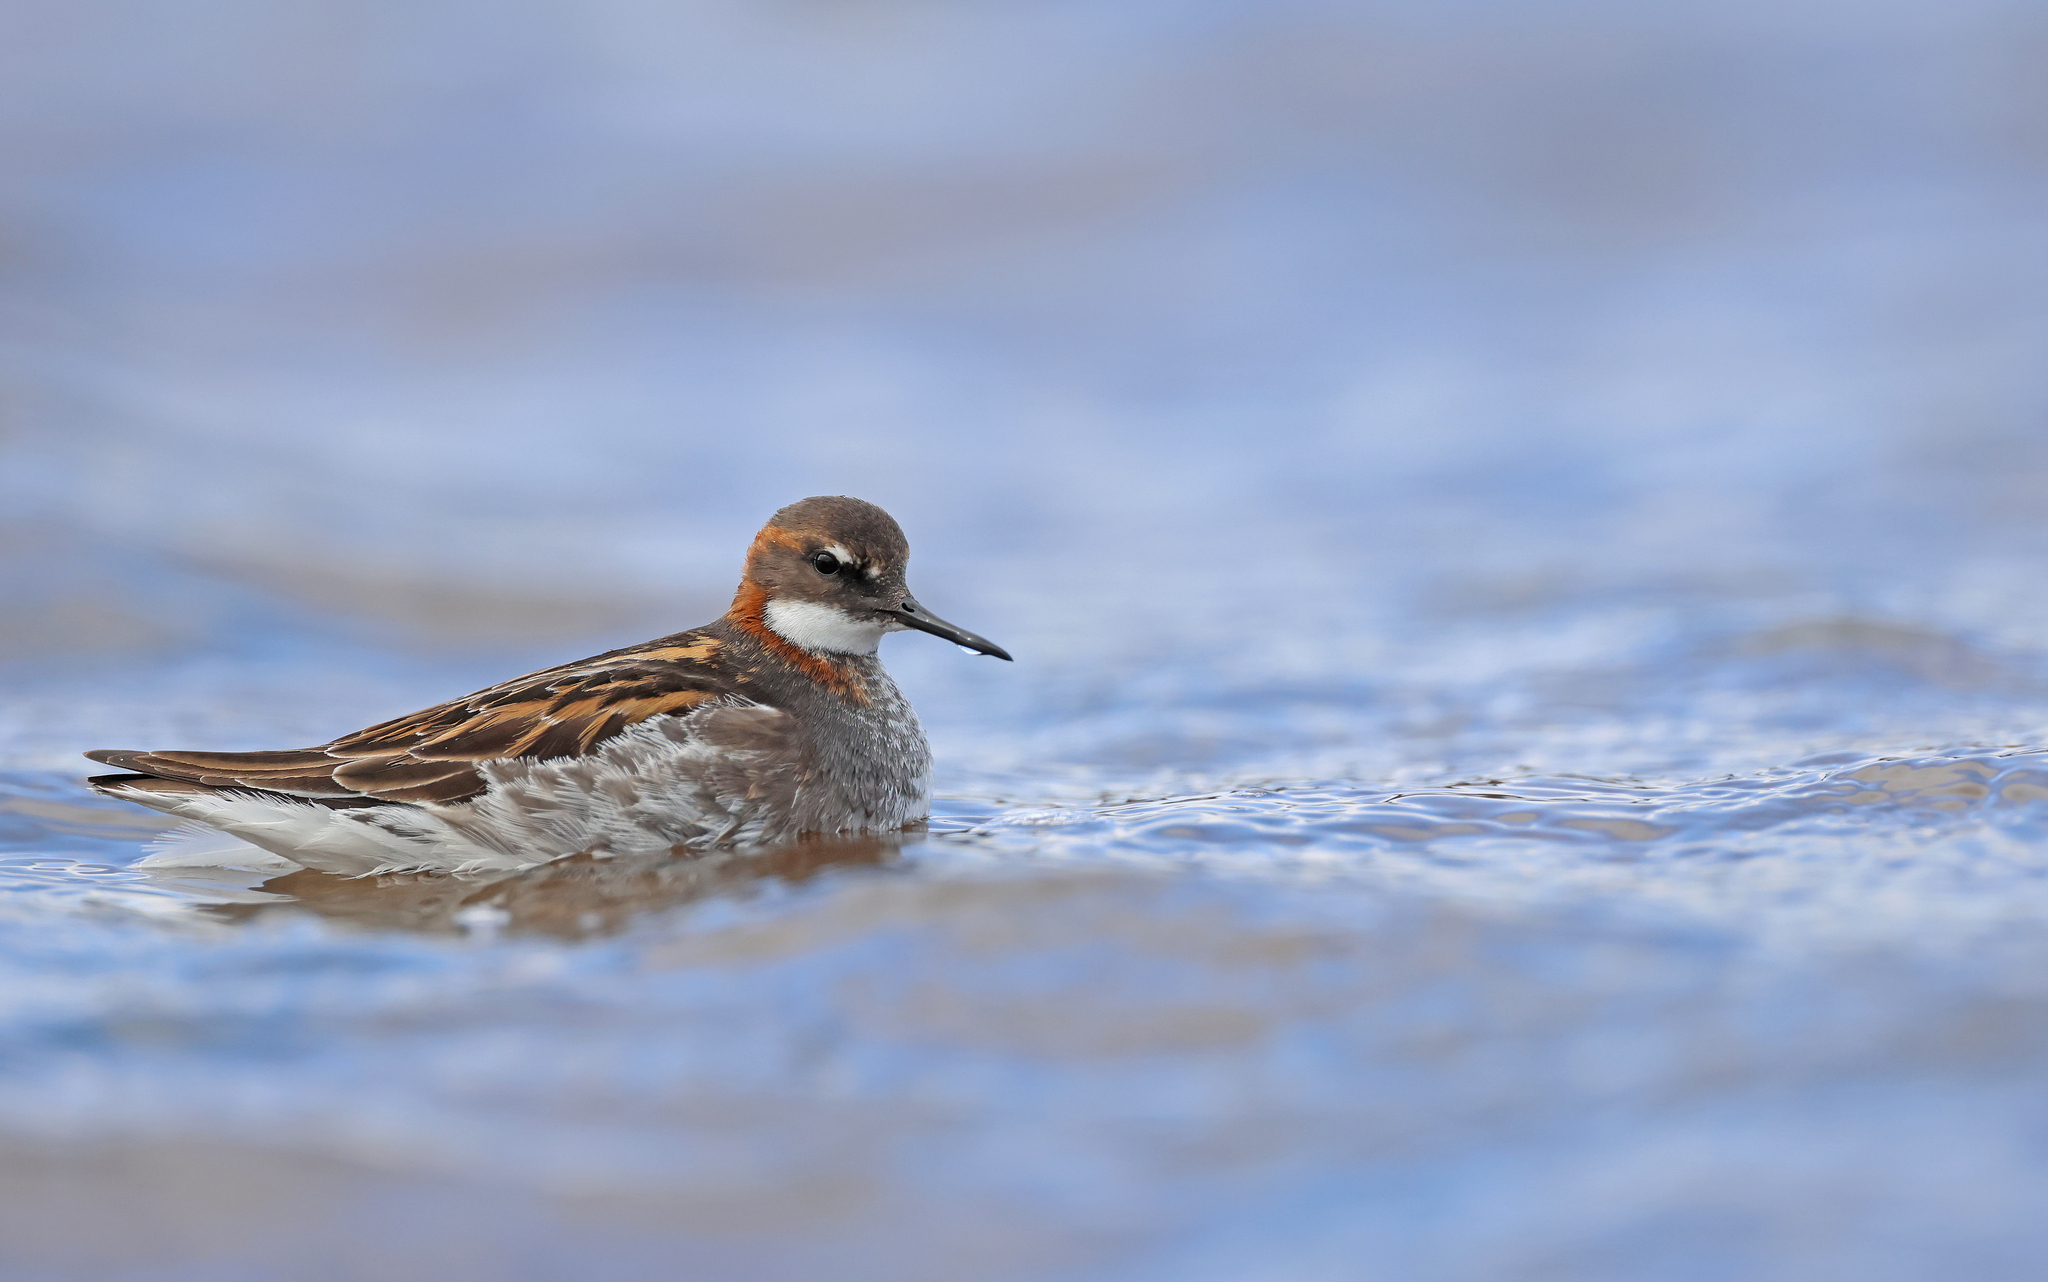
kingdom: Animalia
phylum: Chordata
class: Aves
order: Charadriiformes
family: Scolopacidae
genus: Phalaropus
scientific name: Phalaropus lobatus
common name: Red-necked phalarope
